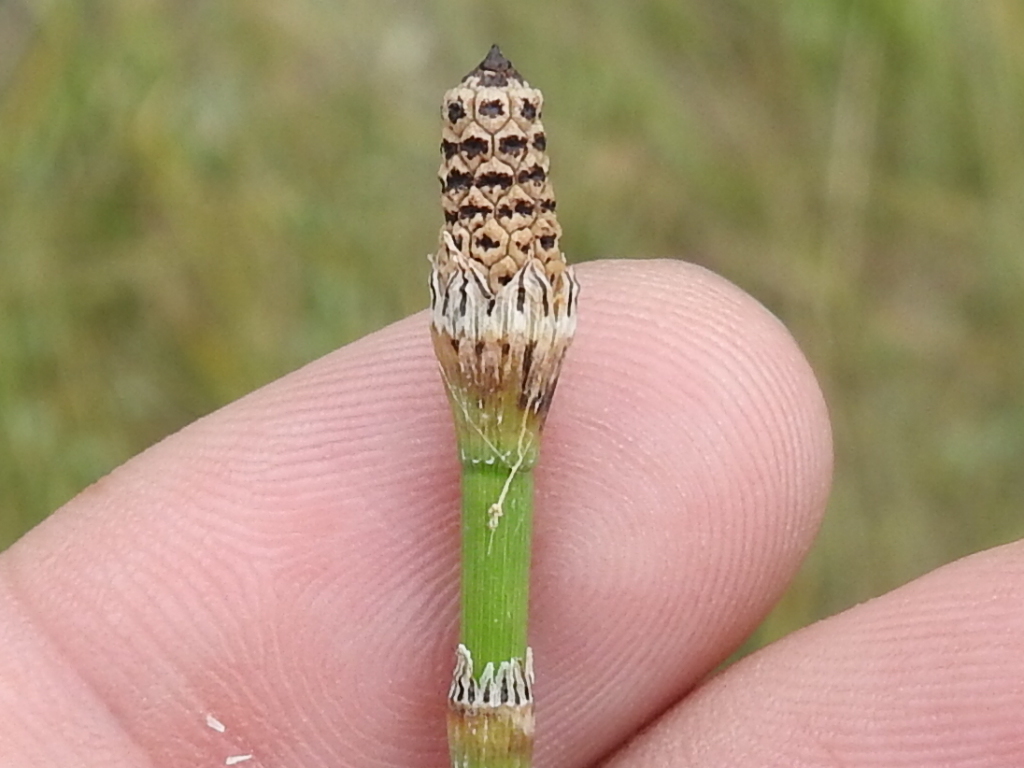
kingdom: Plantae
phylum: Tracheophyta
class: Polypodiopsida
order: Equisetales
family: Equisetaceae
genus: Equisetum
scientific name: Equisetum laevigatum
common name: Smooth scouring-rush
